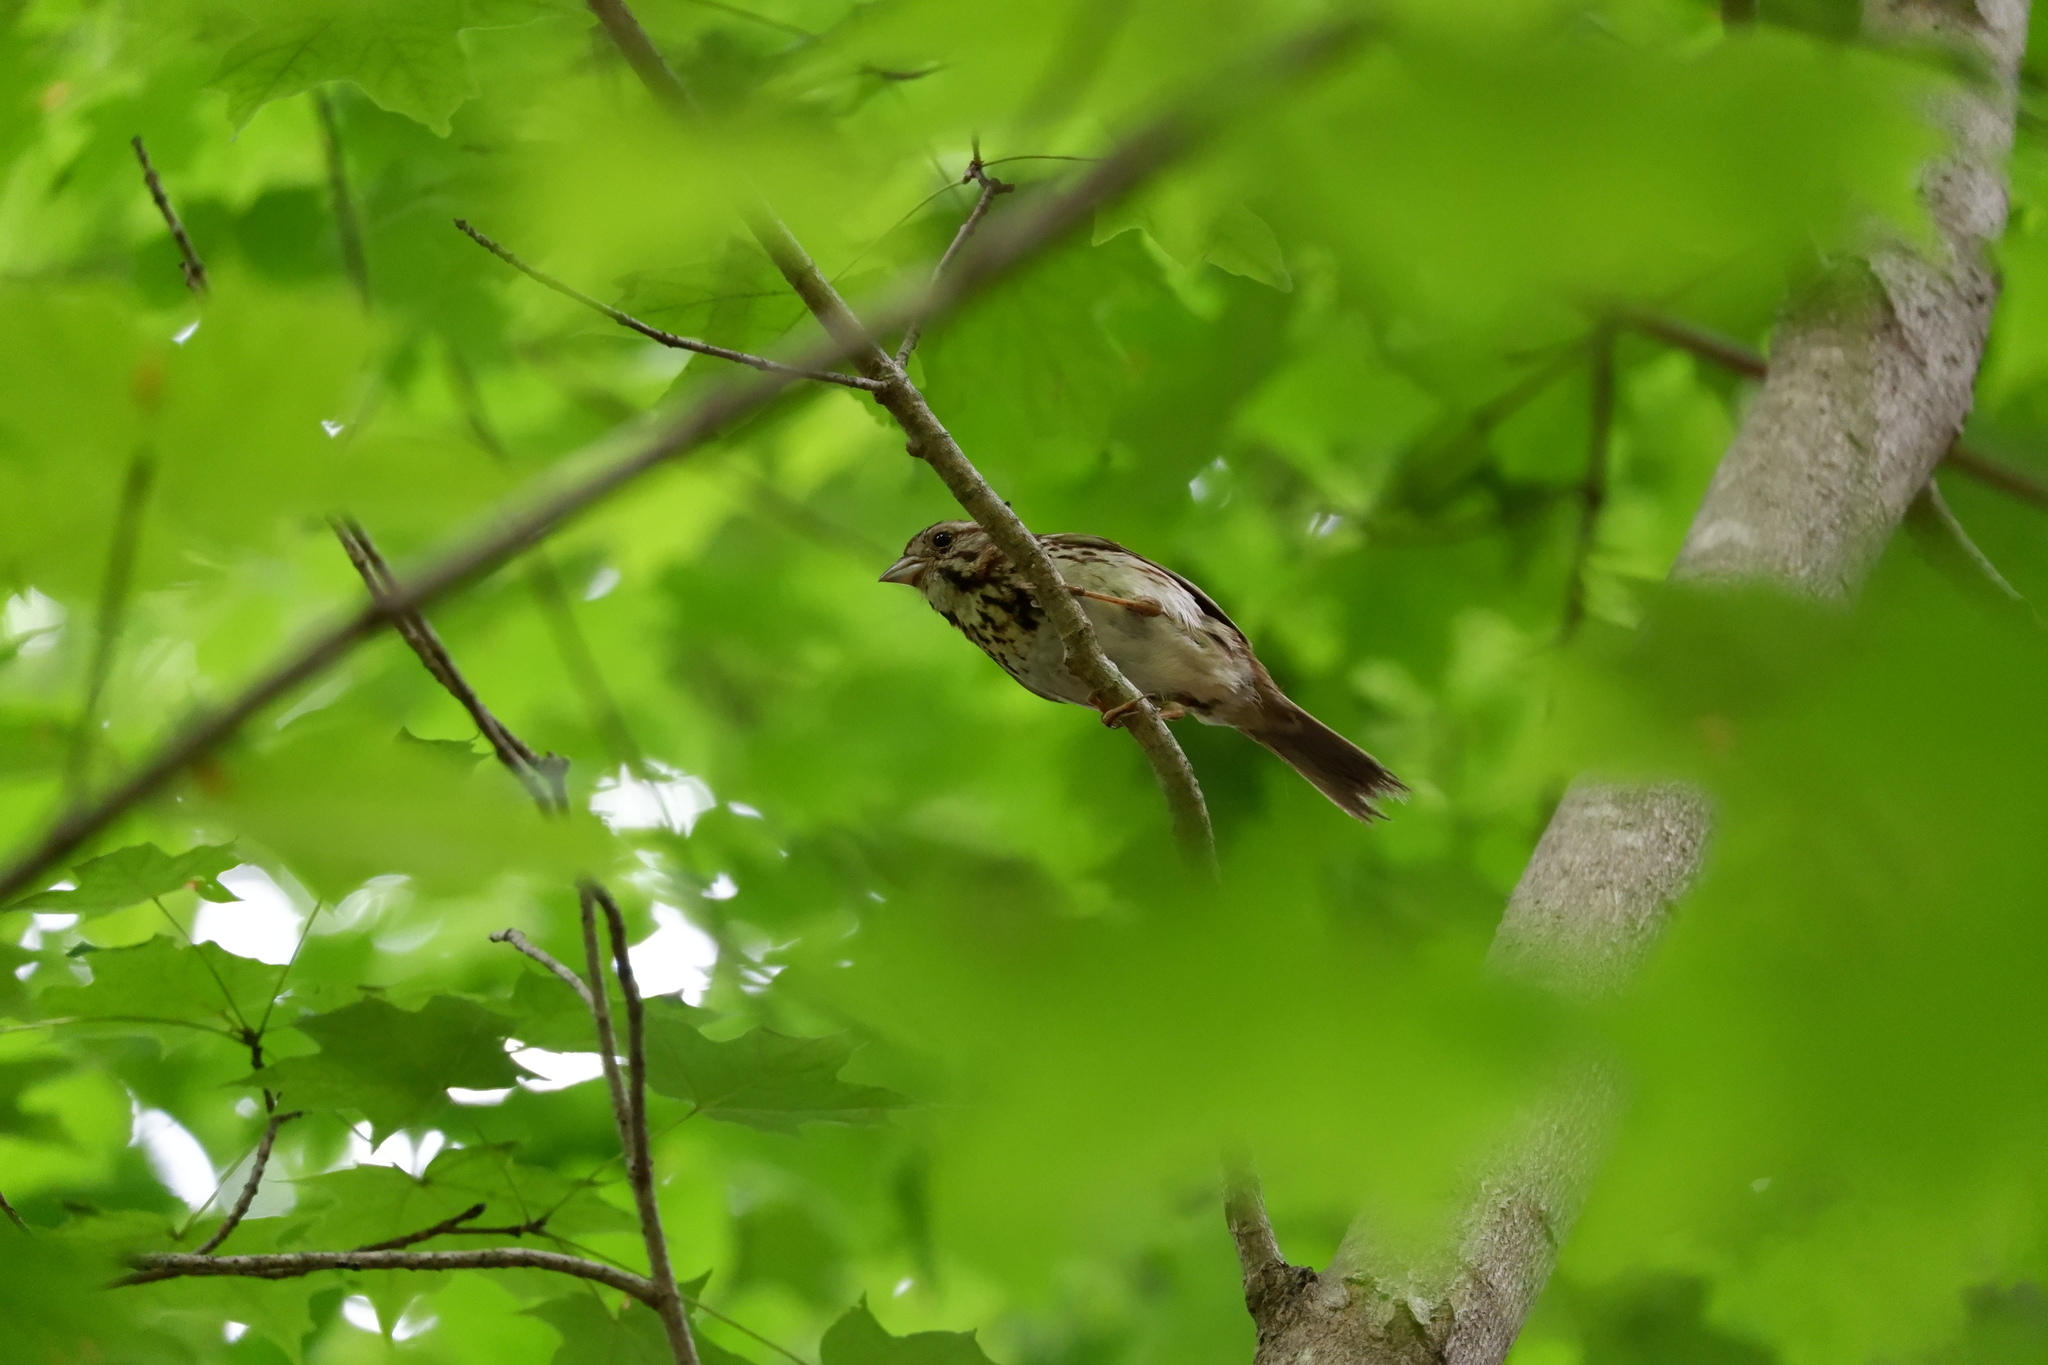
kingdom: Animalia
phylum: Chordata
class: Aves
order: Passeriformes
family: Passerellidae
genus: Melospiza
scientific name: Melospiza melodia
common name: Song sparrow
